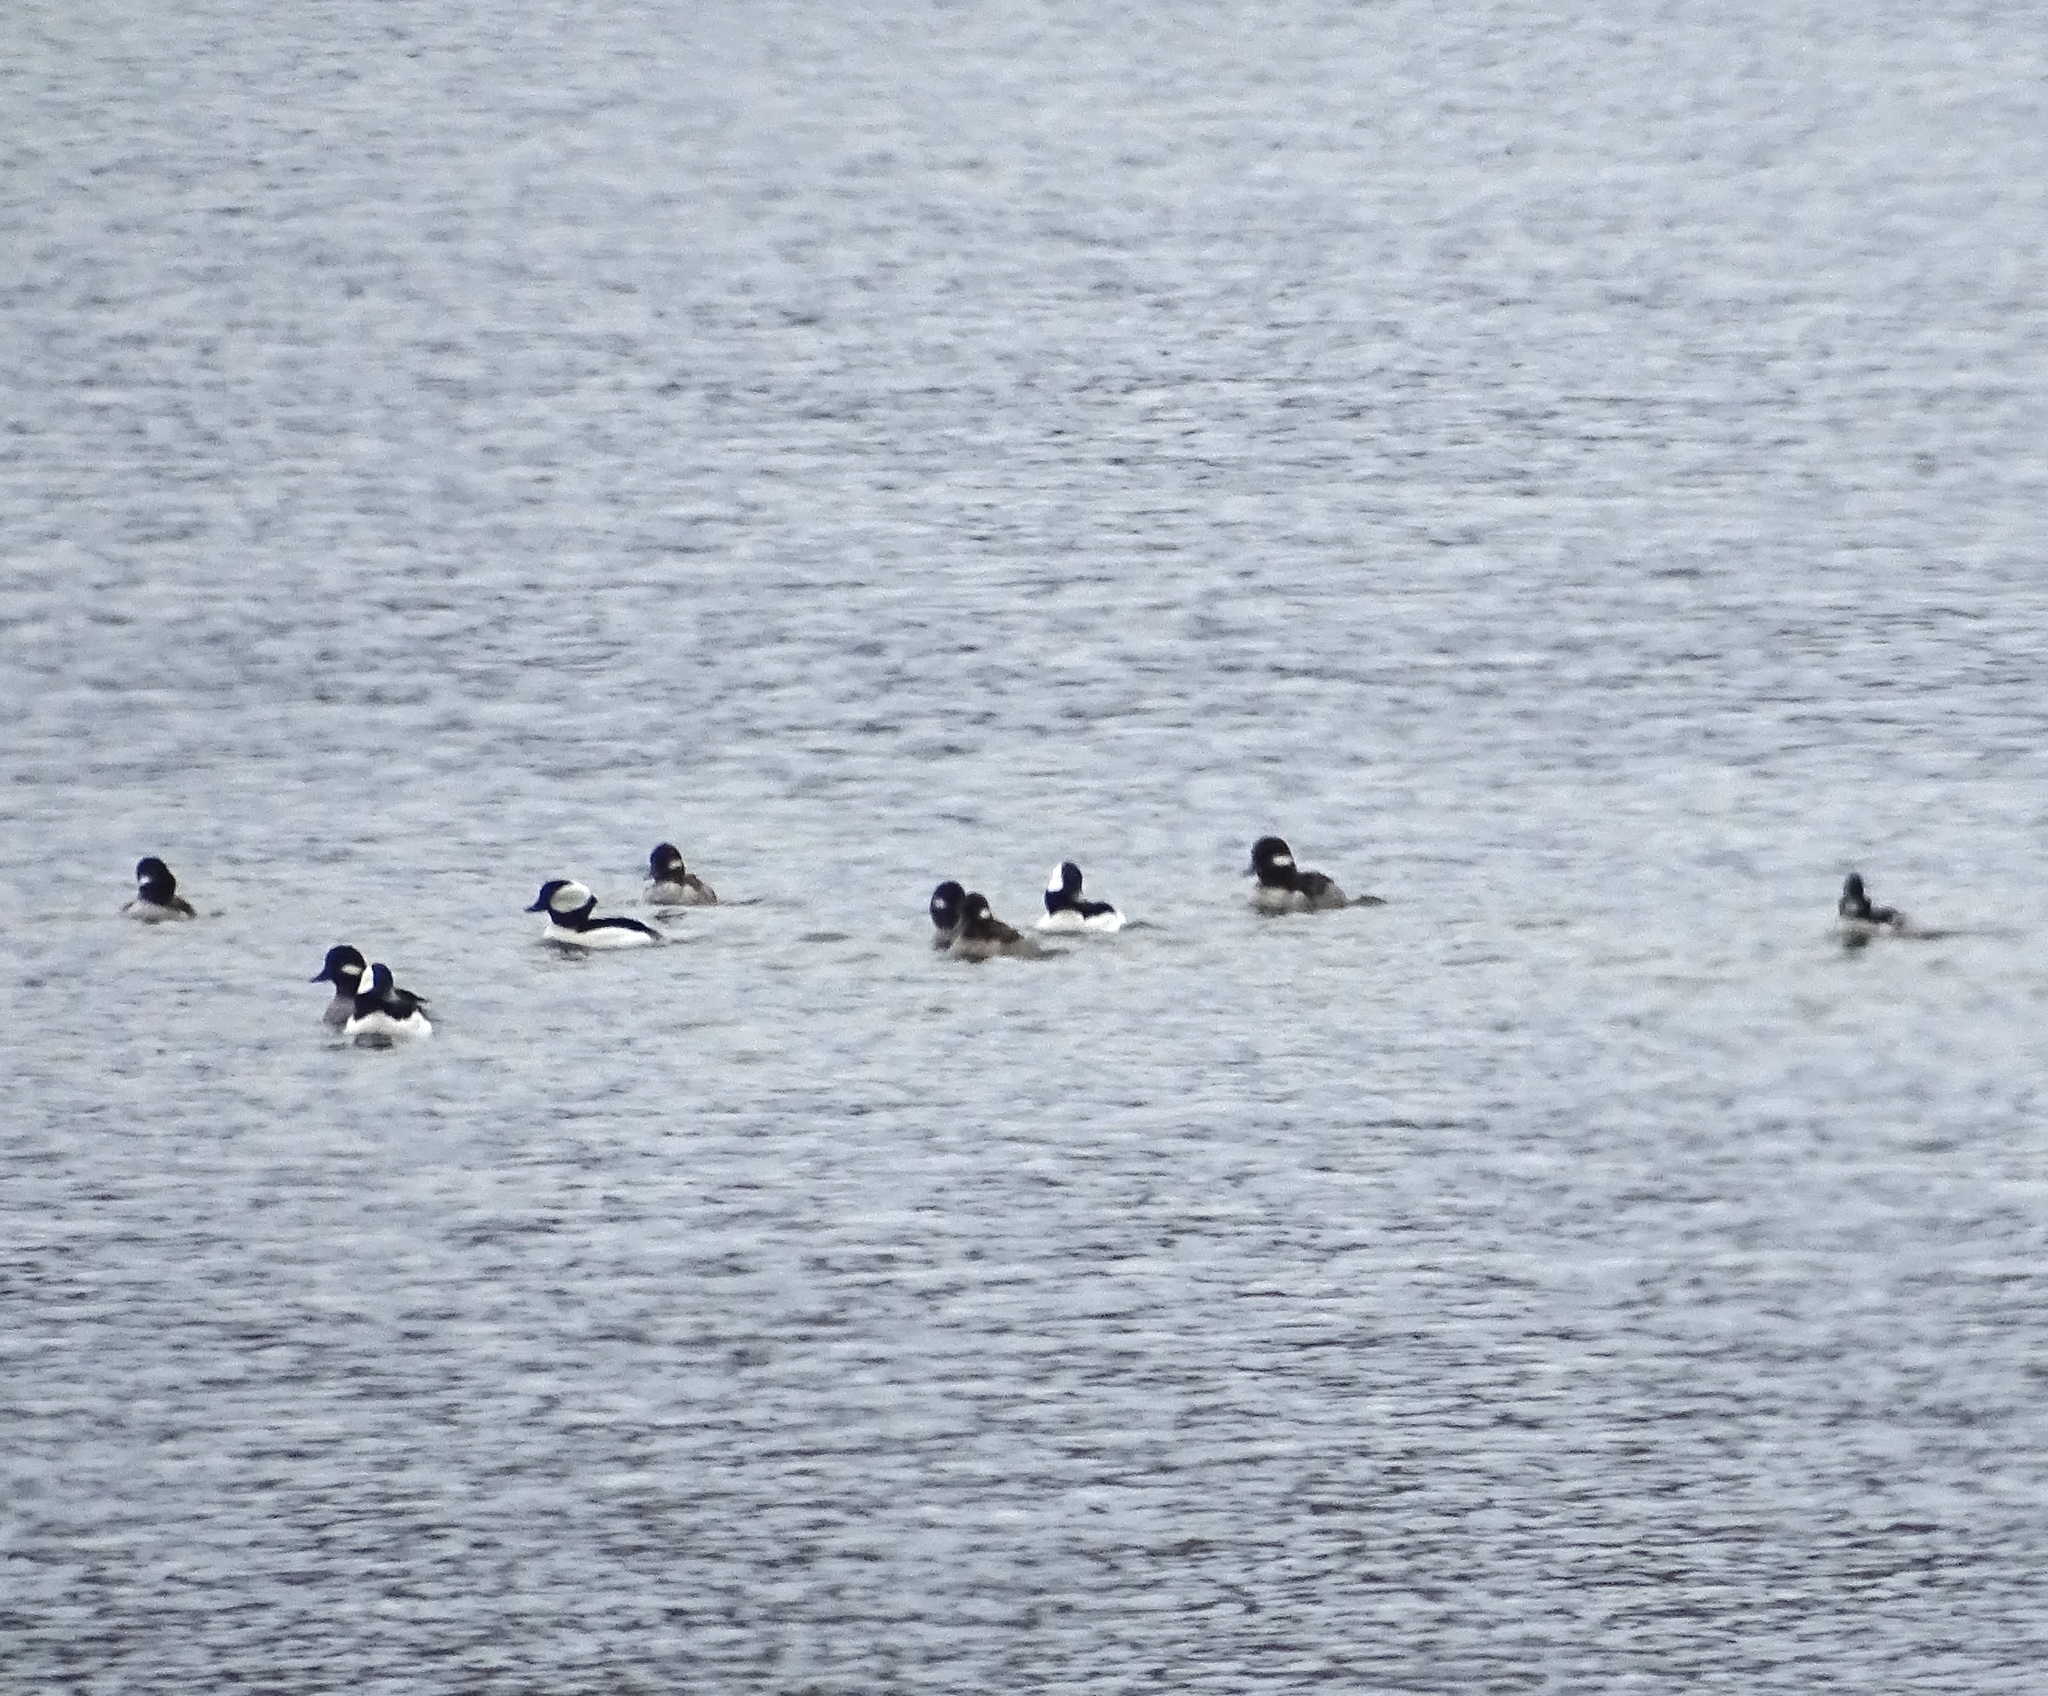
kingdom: Animalia
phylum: Chordata
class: Aves
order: Anseriformes
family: Anatidae
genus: Bucephala
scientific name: Bucephala albeola
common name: Bufflehead
